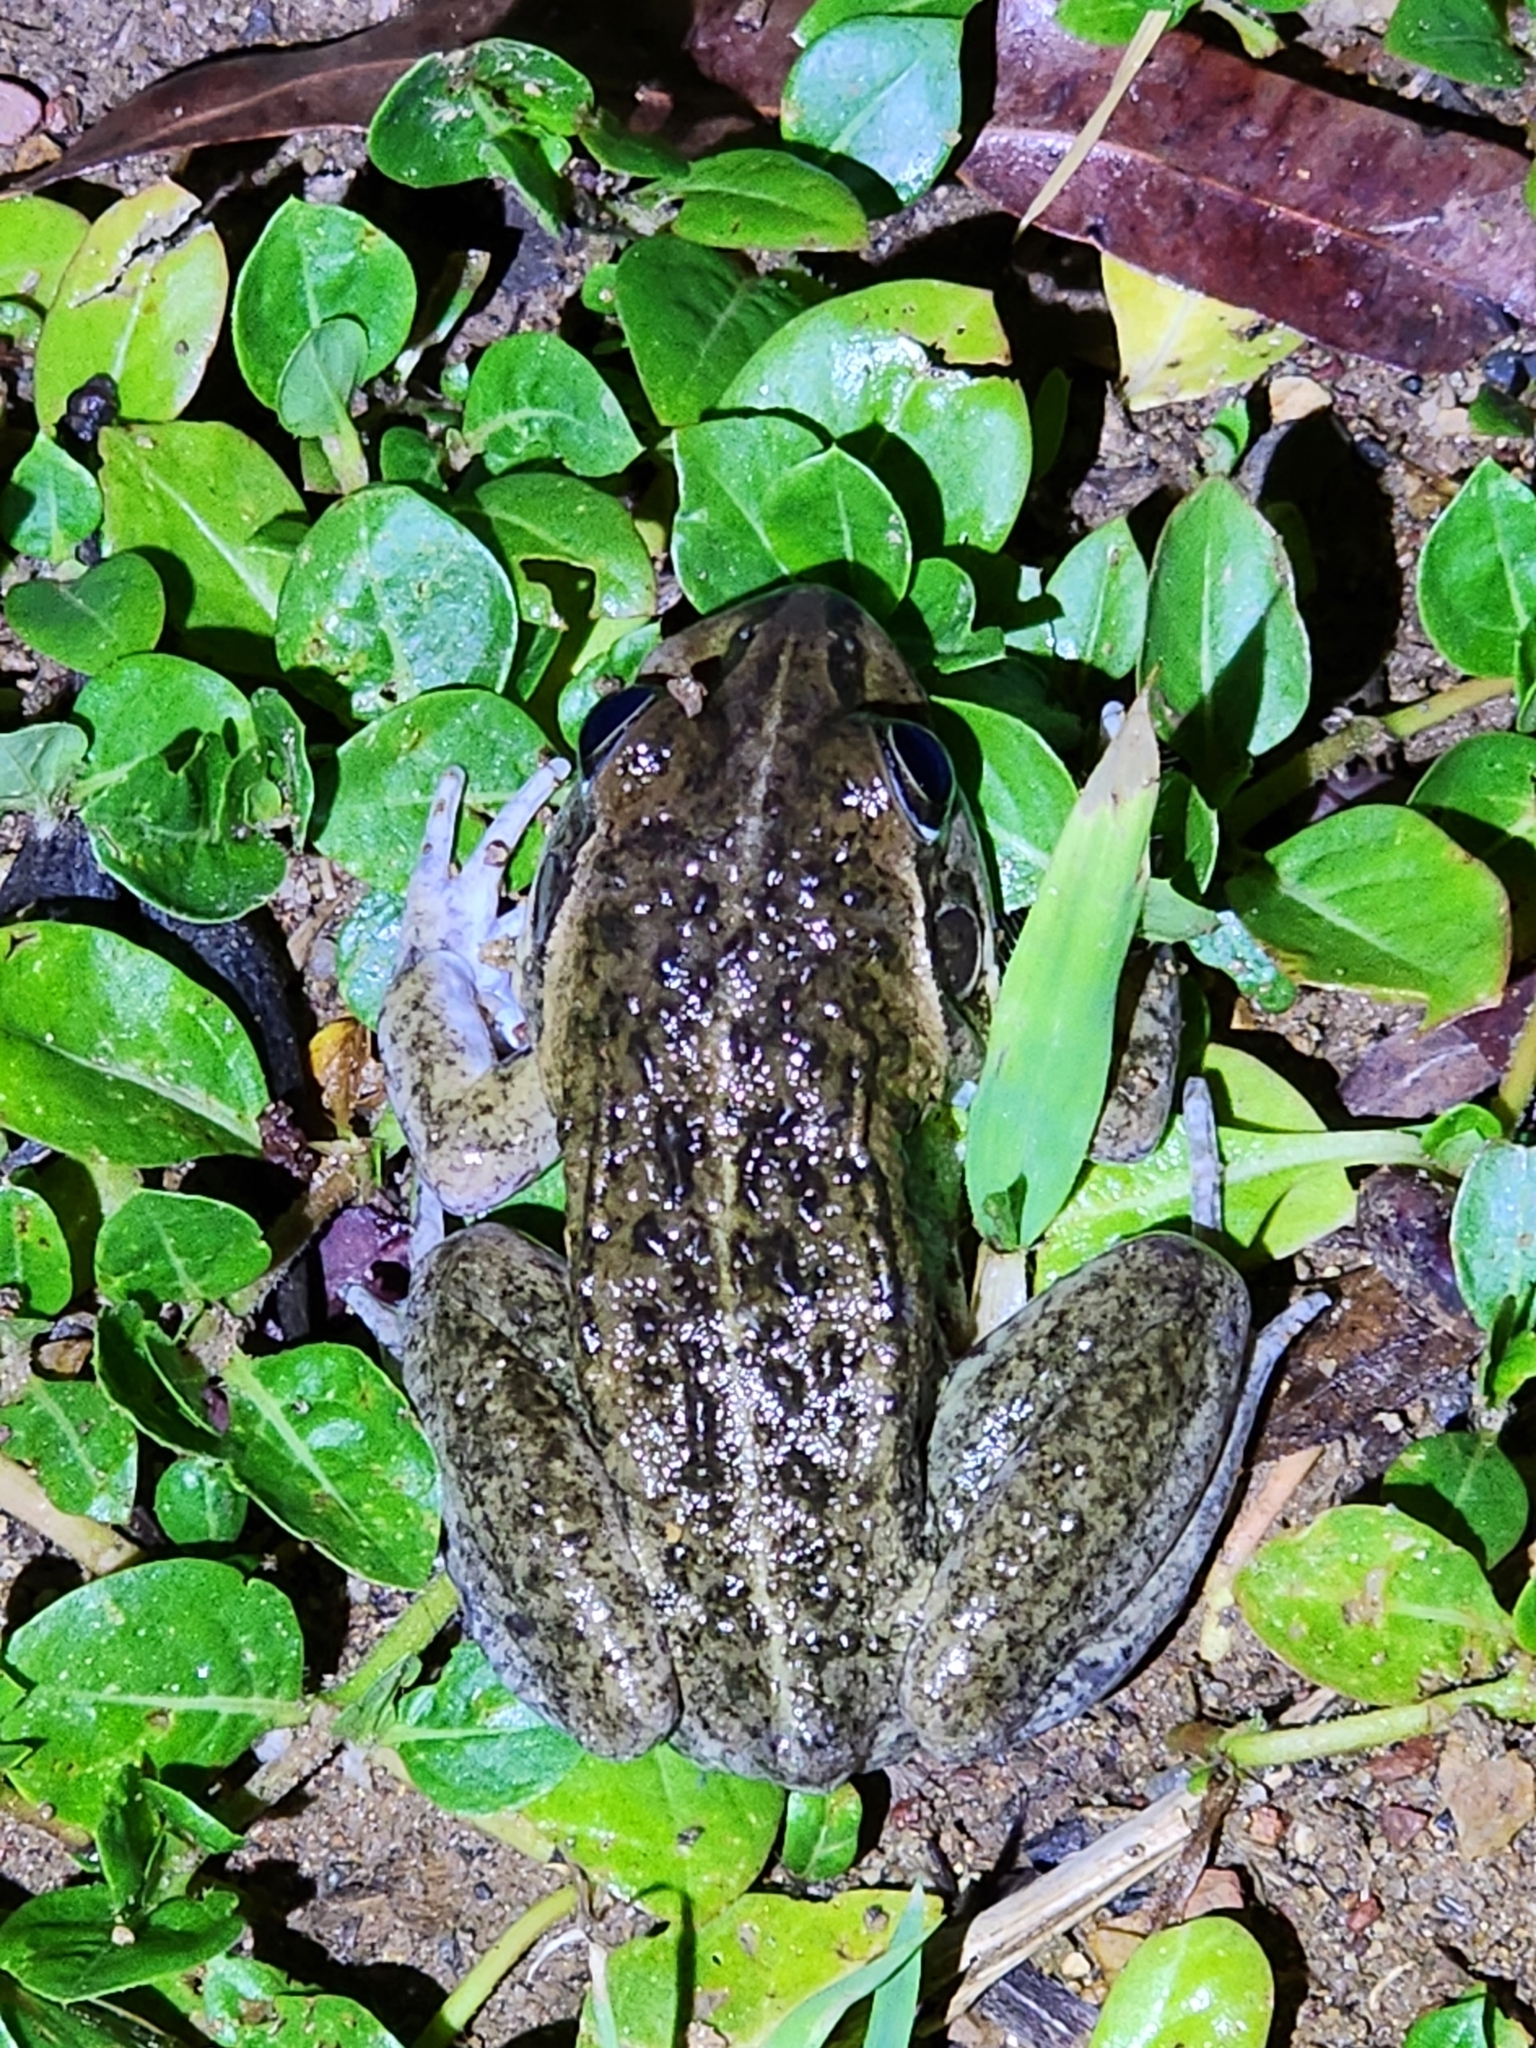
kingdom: Animalia
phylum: Chordata
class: Amphibia
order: Anura
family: Pelodryadidae
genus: Ranoidea
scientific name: Ranoidea alboguttata
